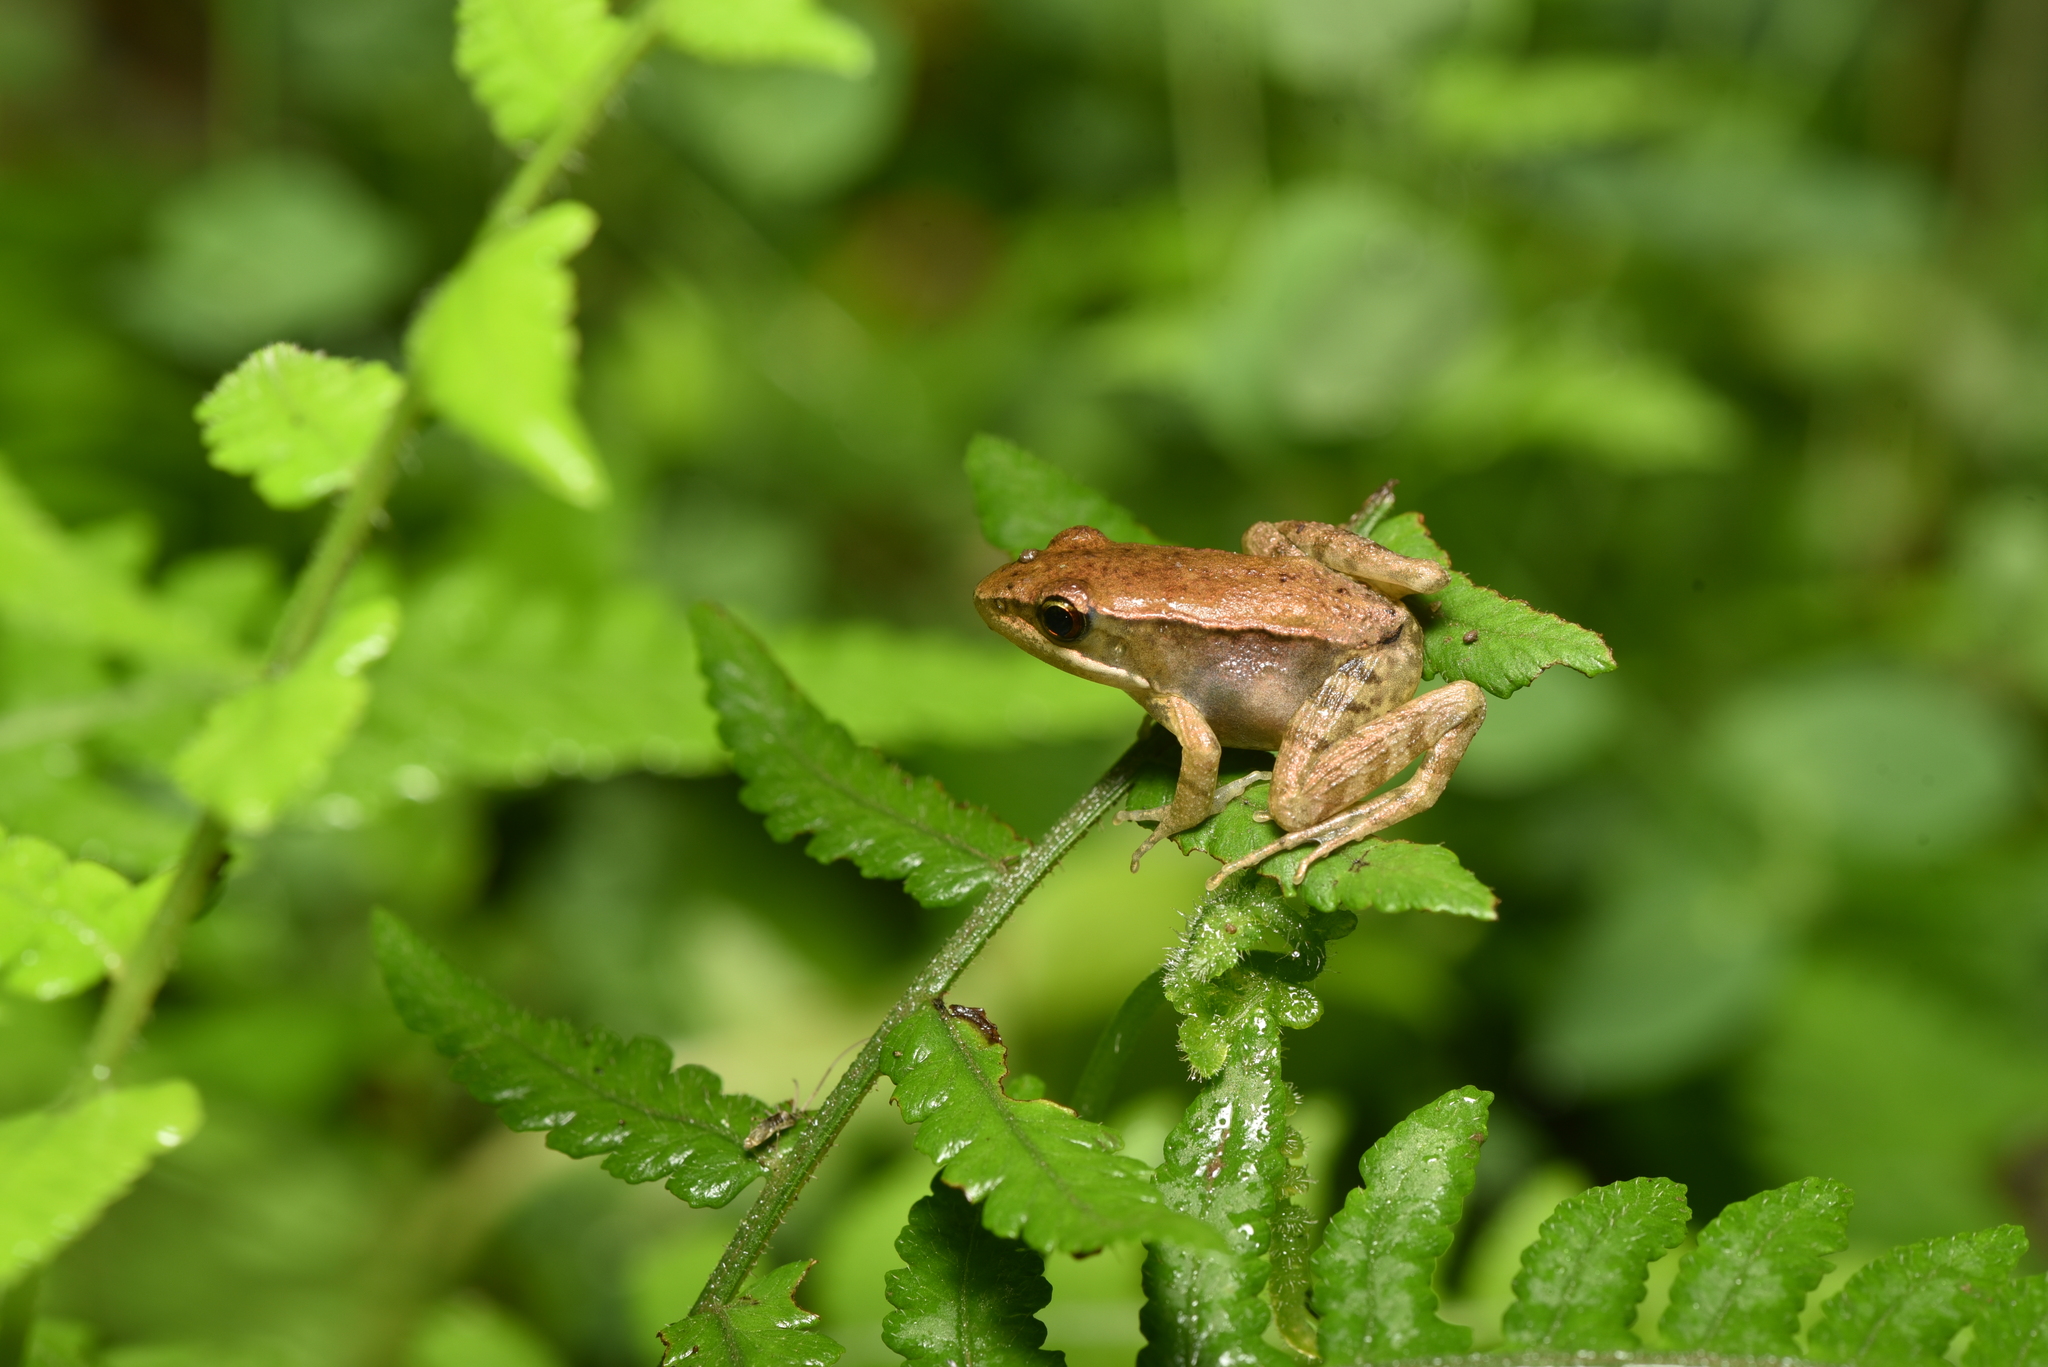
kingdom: Animalia
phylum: Chordata
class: Amphibia
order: Anura
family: Ranidae
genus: Hylarana
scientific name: Hylarana latouchii
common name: Broad-folded frog
